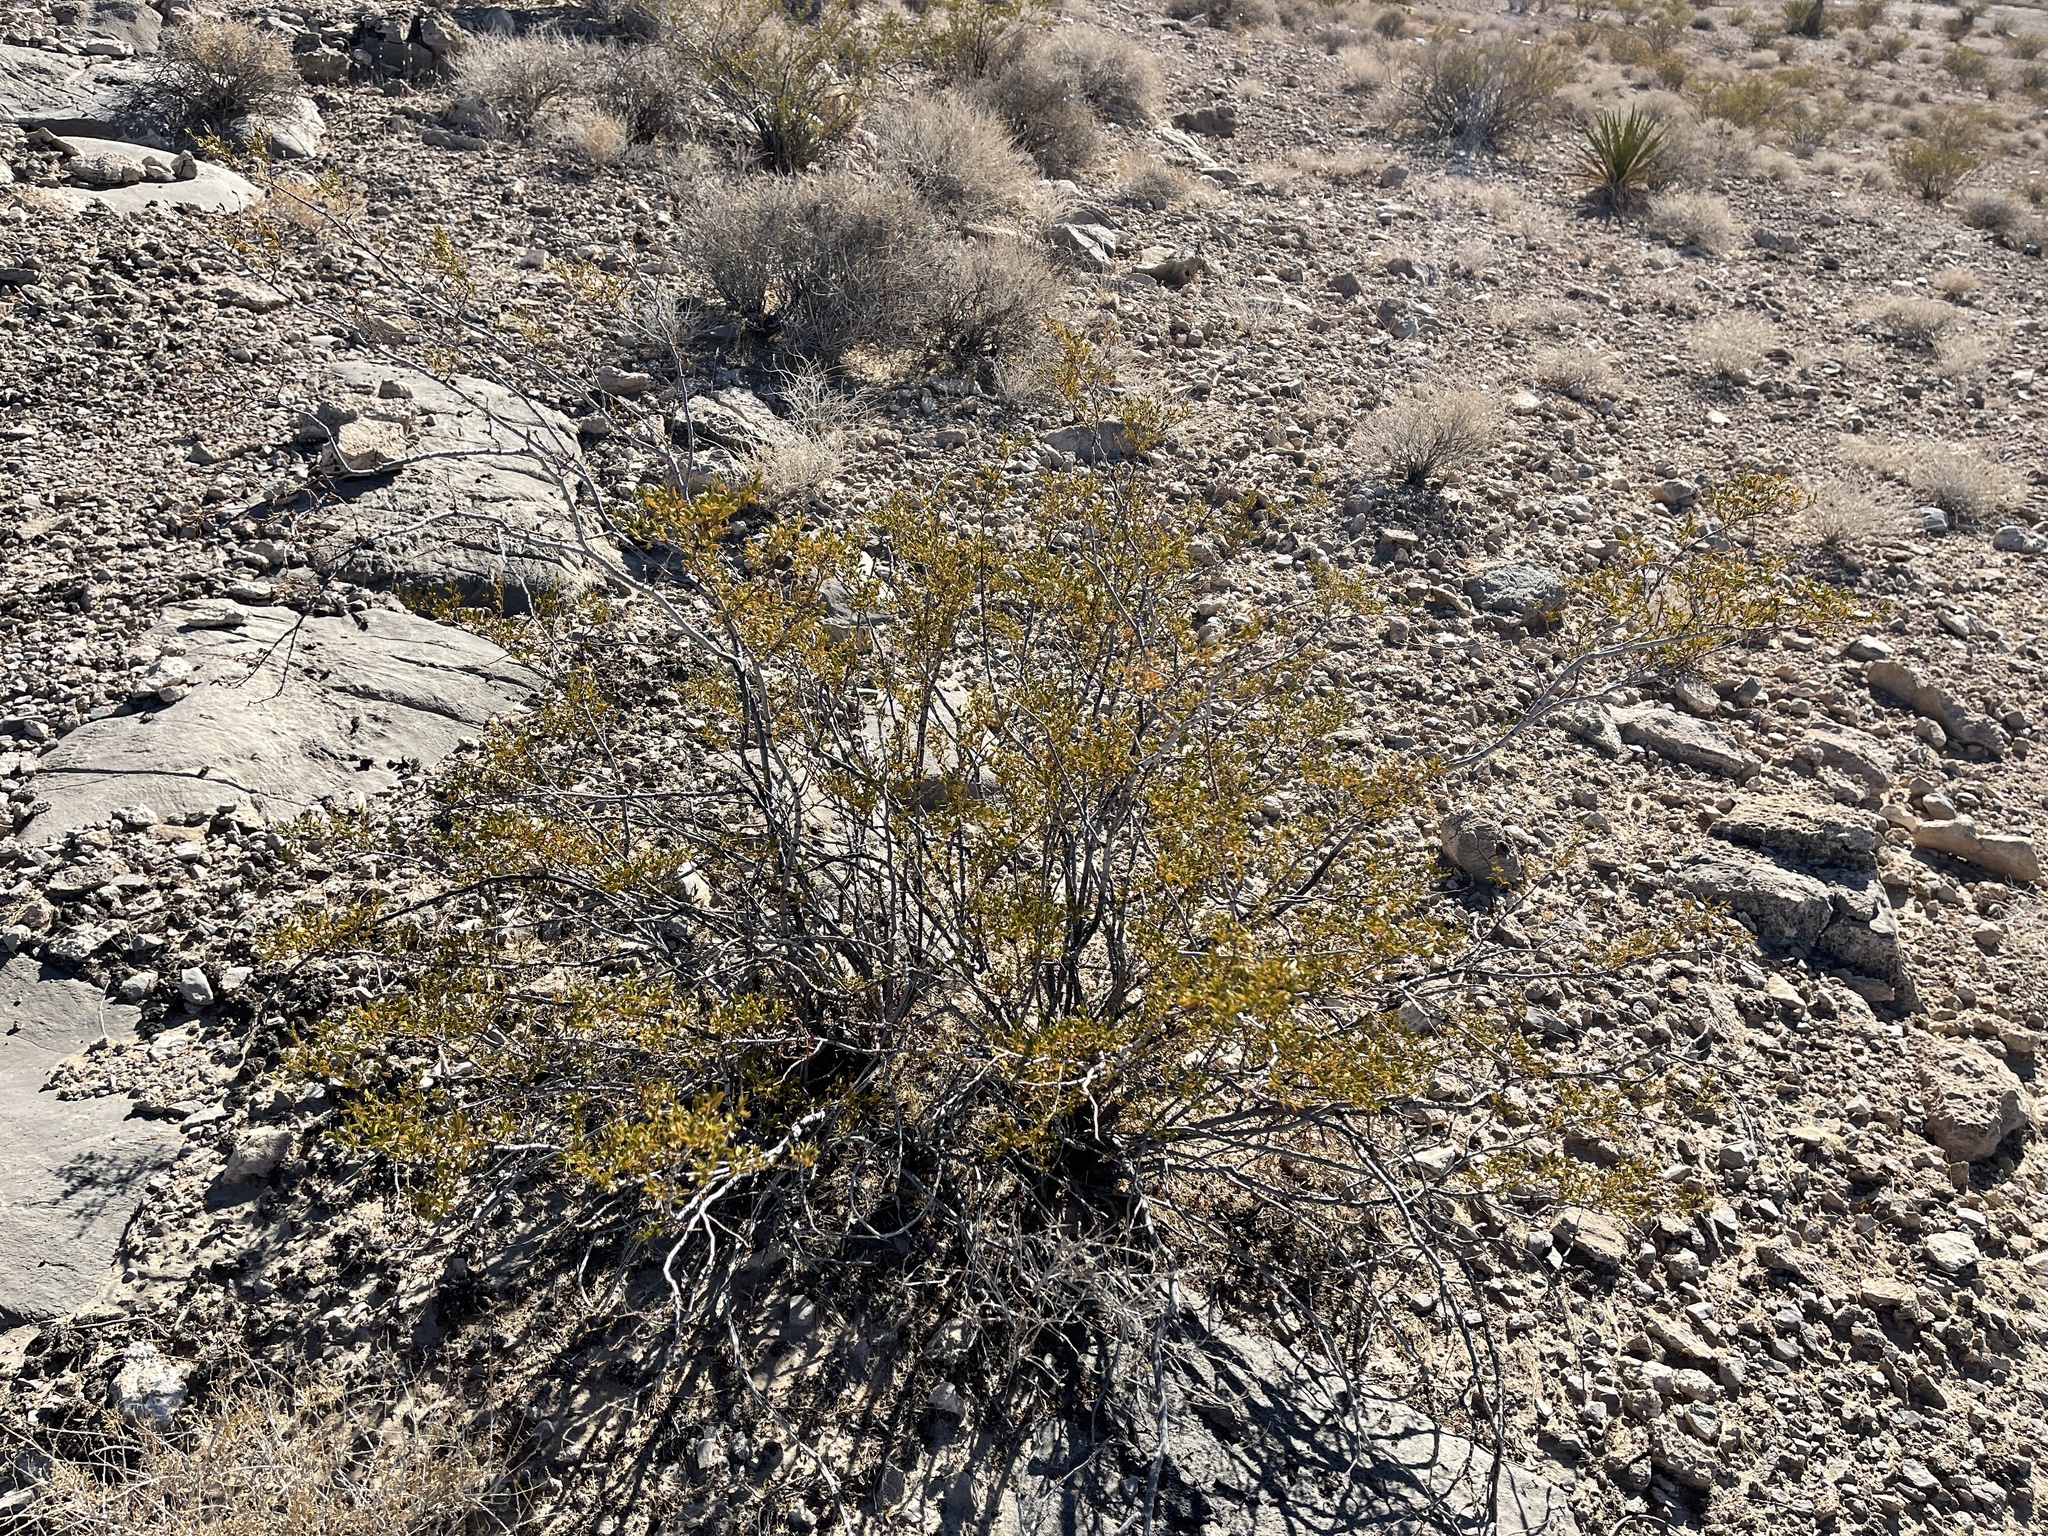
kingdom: Plantae
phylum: Tracheophyta
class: Magnoliopsida
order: Zygophyllales
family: Zygophyllaceae
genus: Larrea
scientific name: Larrea tridentata
